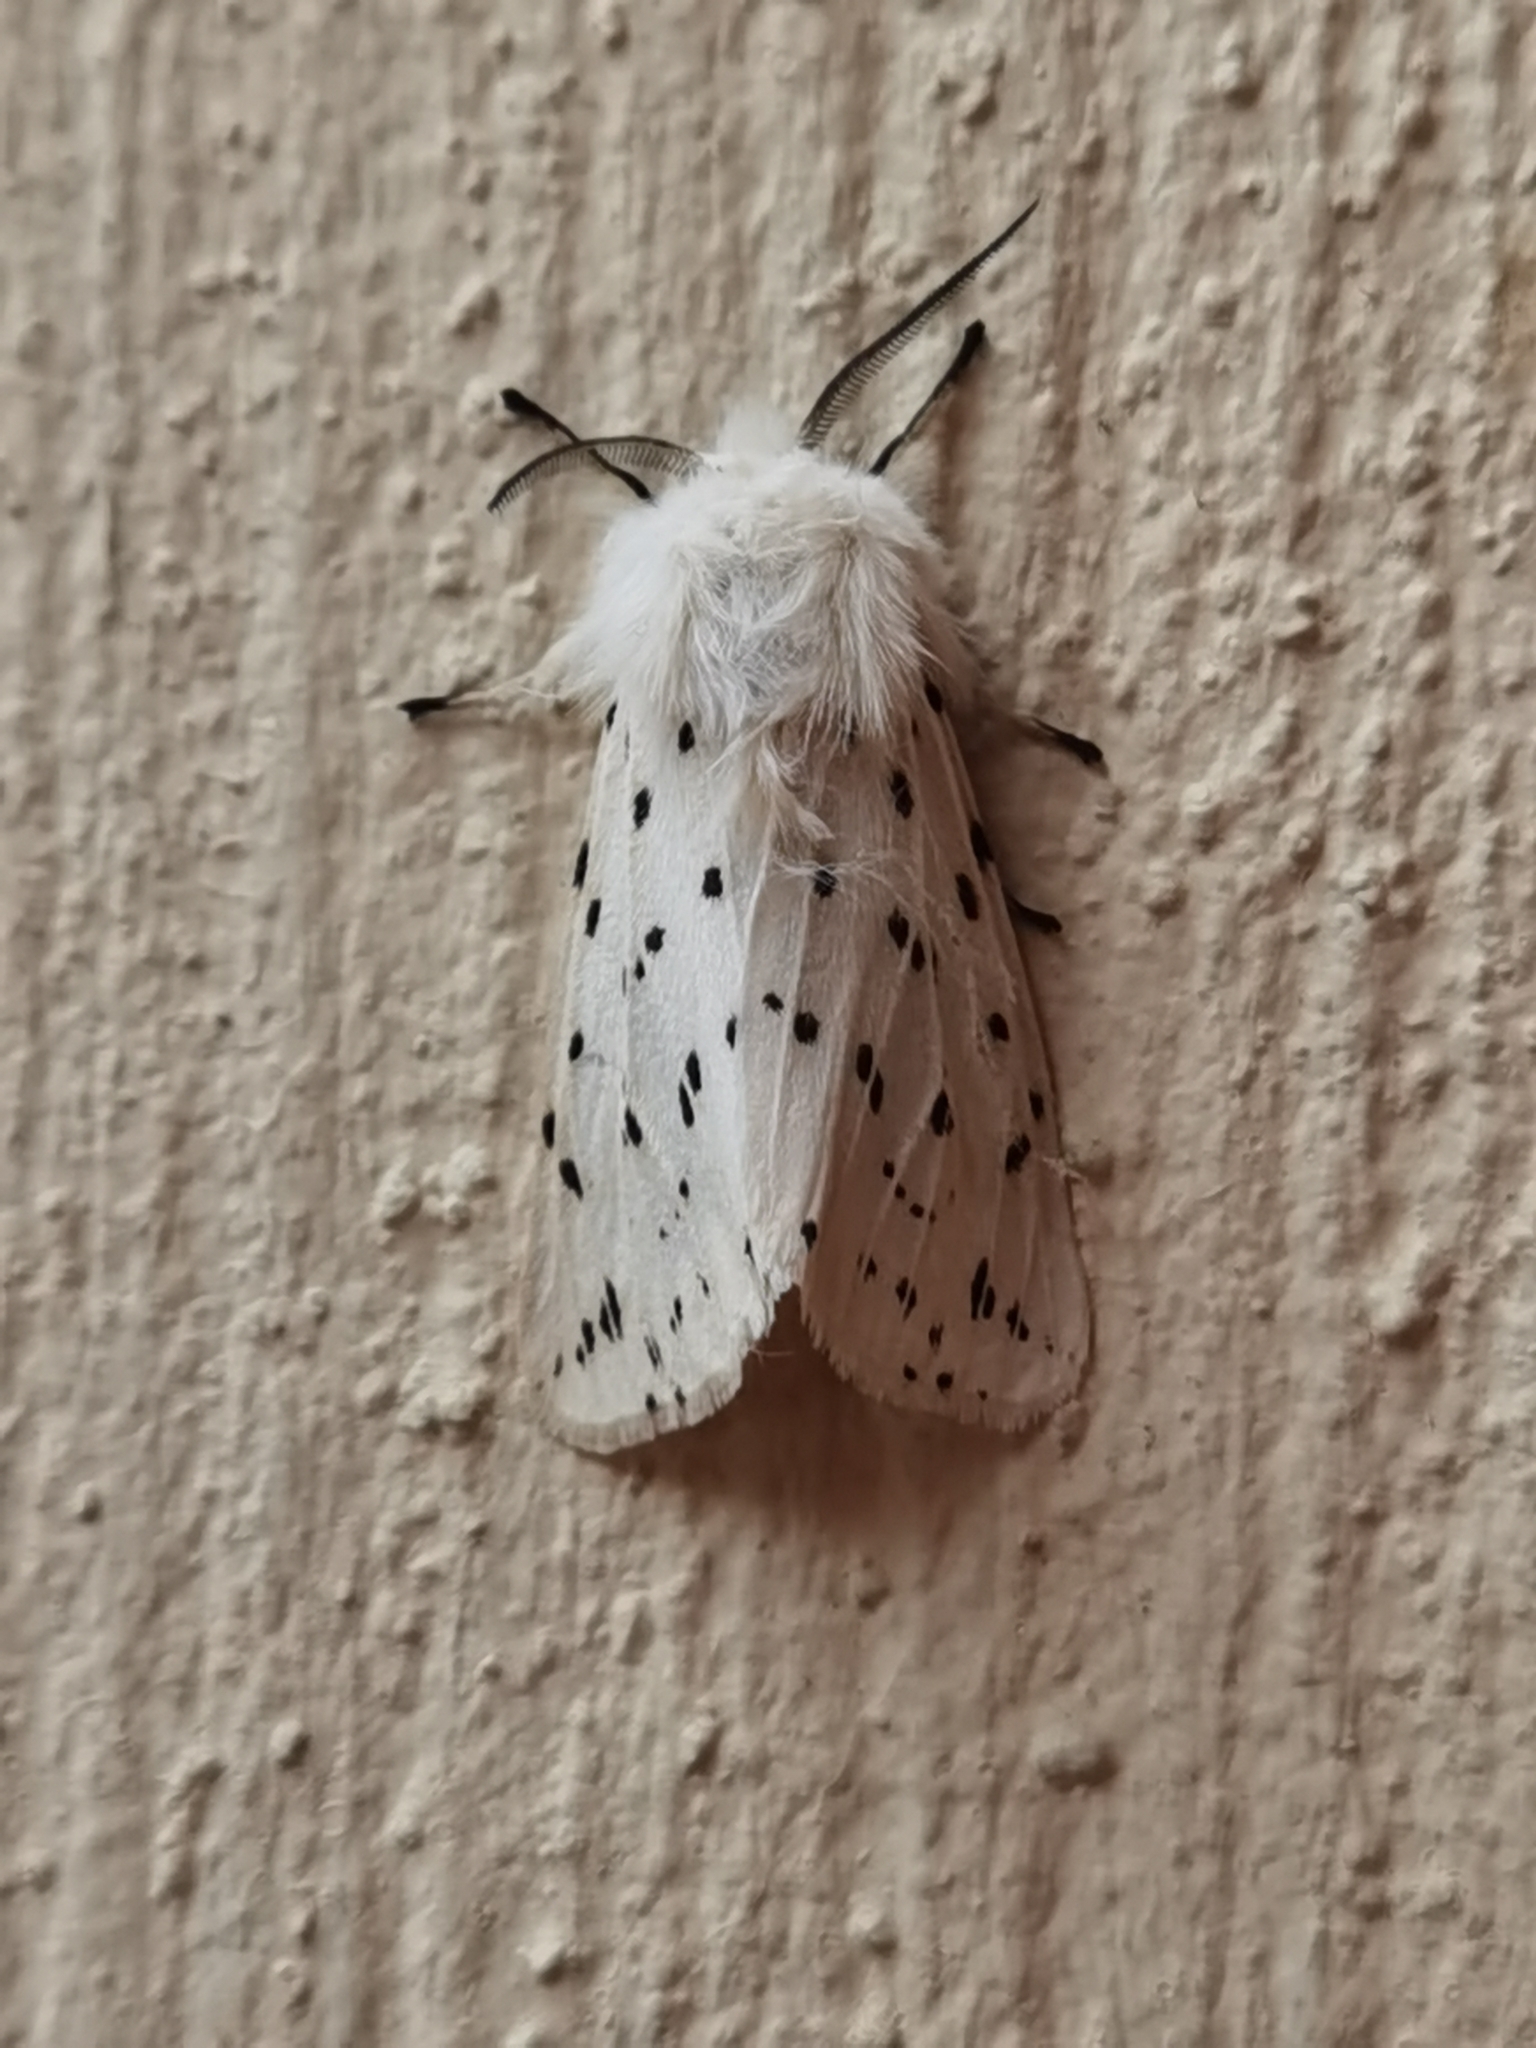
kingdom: Animalia
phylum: Arthropoda
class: Insecta
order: Lepidoptera
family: Erebidae
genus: Spilosoma
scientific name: Spilosoma lubricipeda
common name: White ermine
